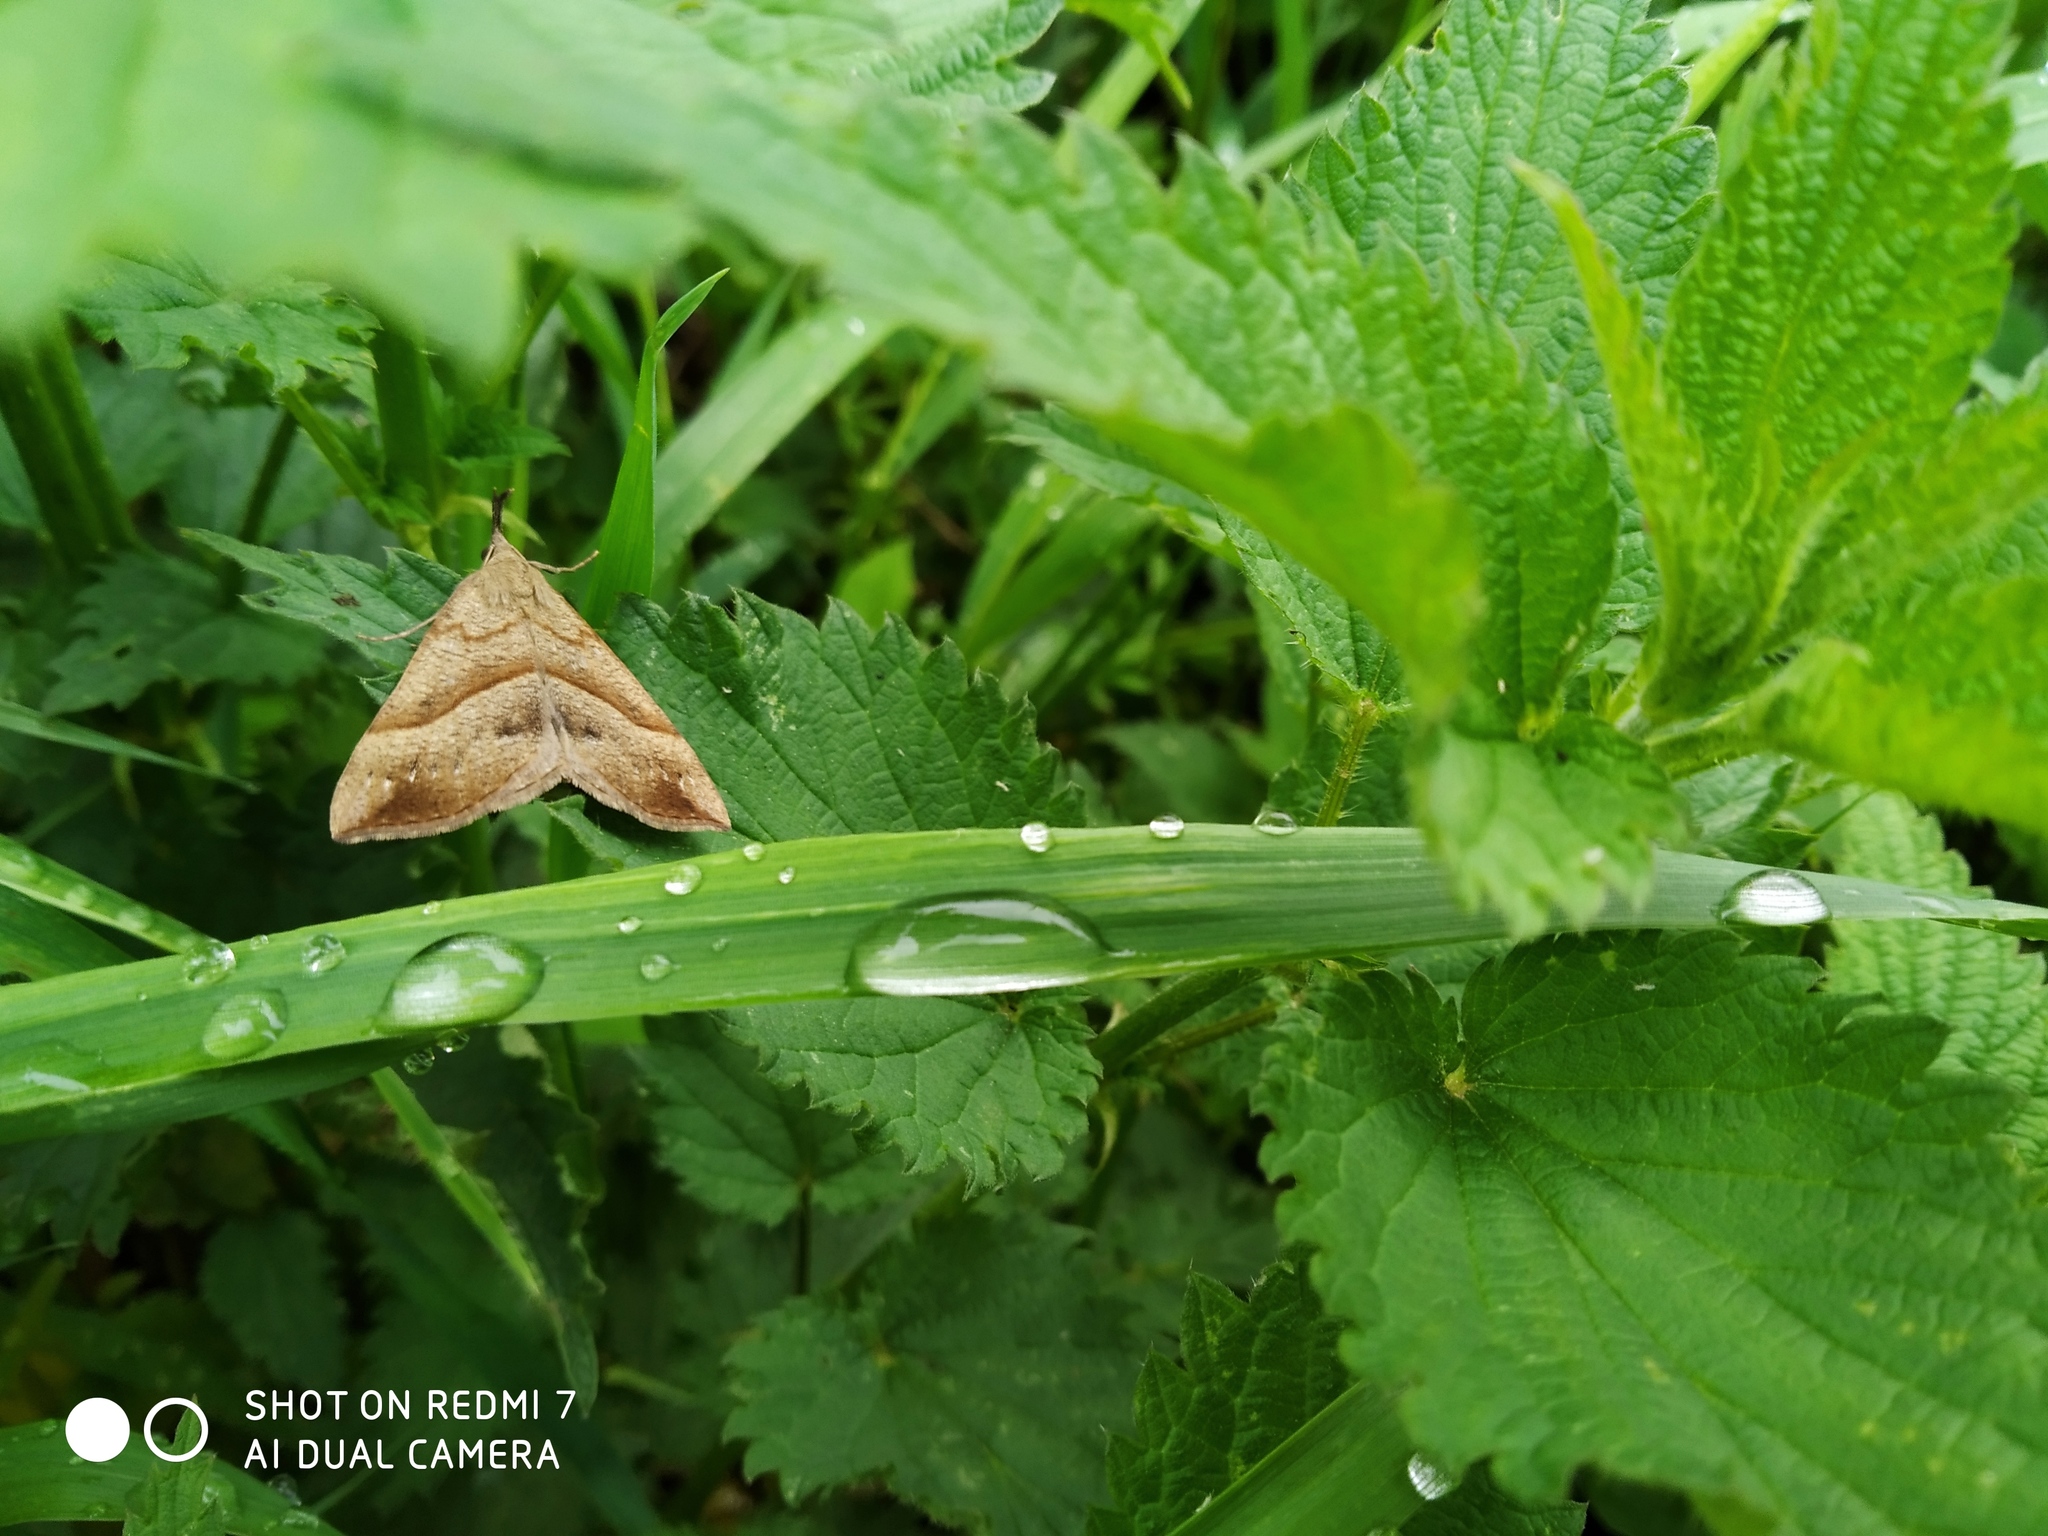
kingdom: Animalia
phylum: Arthropoda
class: Insecta
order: Lepidoptera
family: Erebidae
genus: Hypena
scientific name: Hypena proboscidalis
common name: Snout
